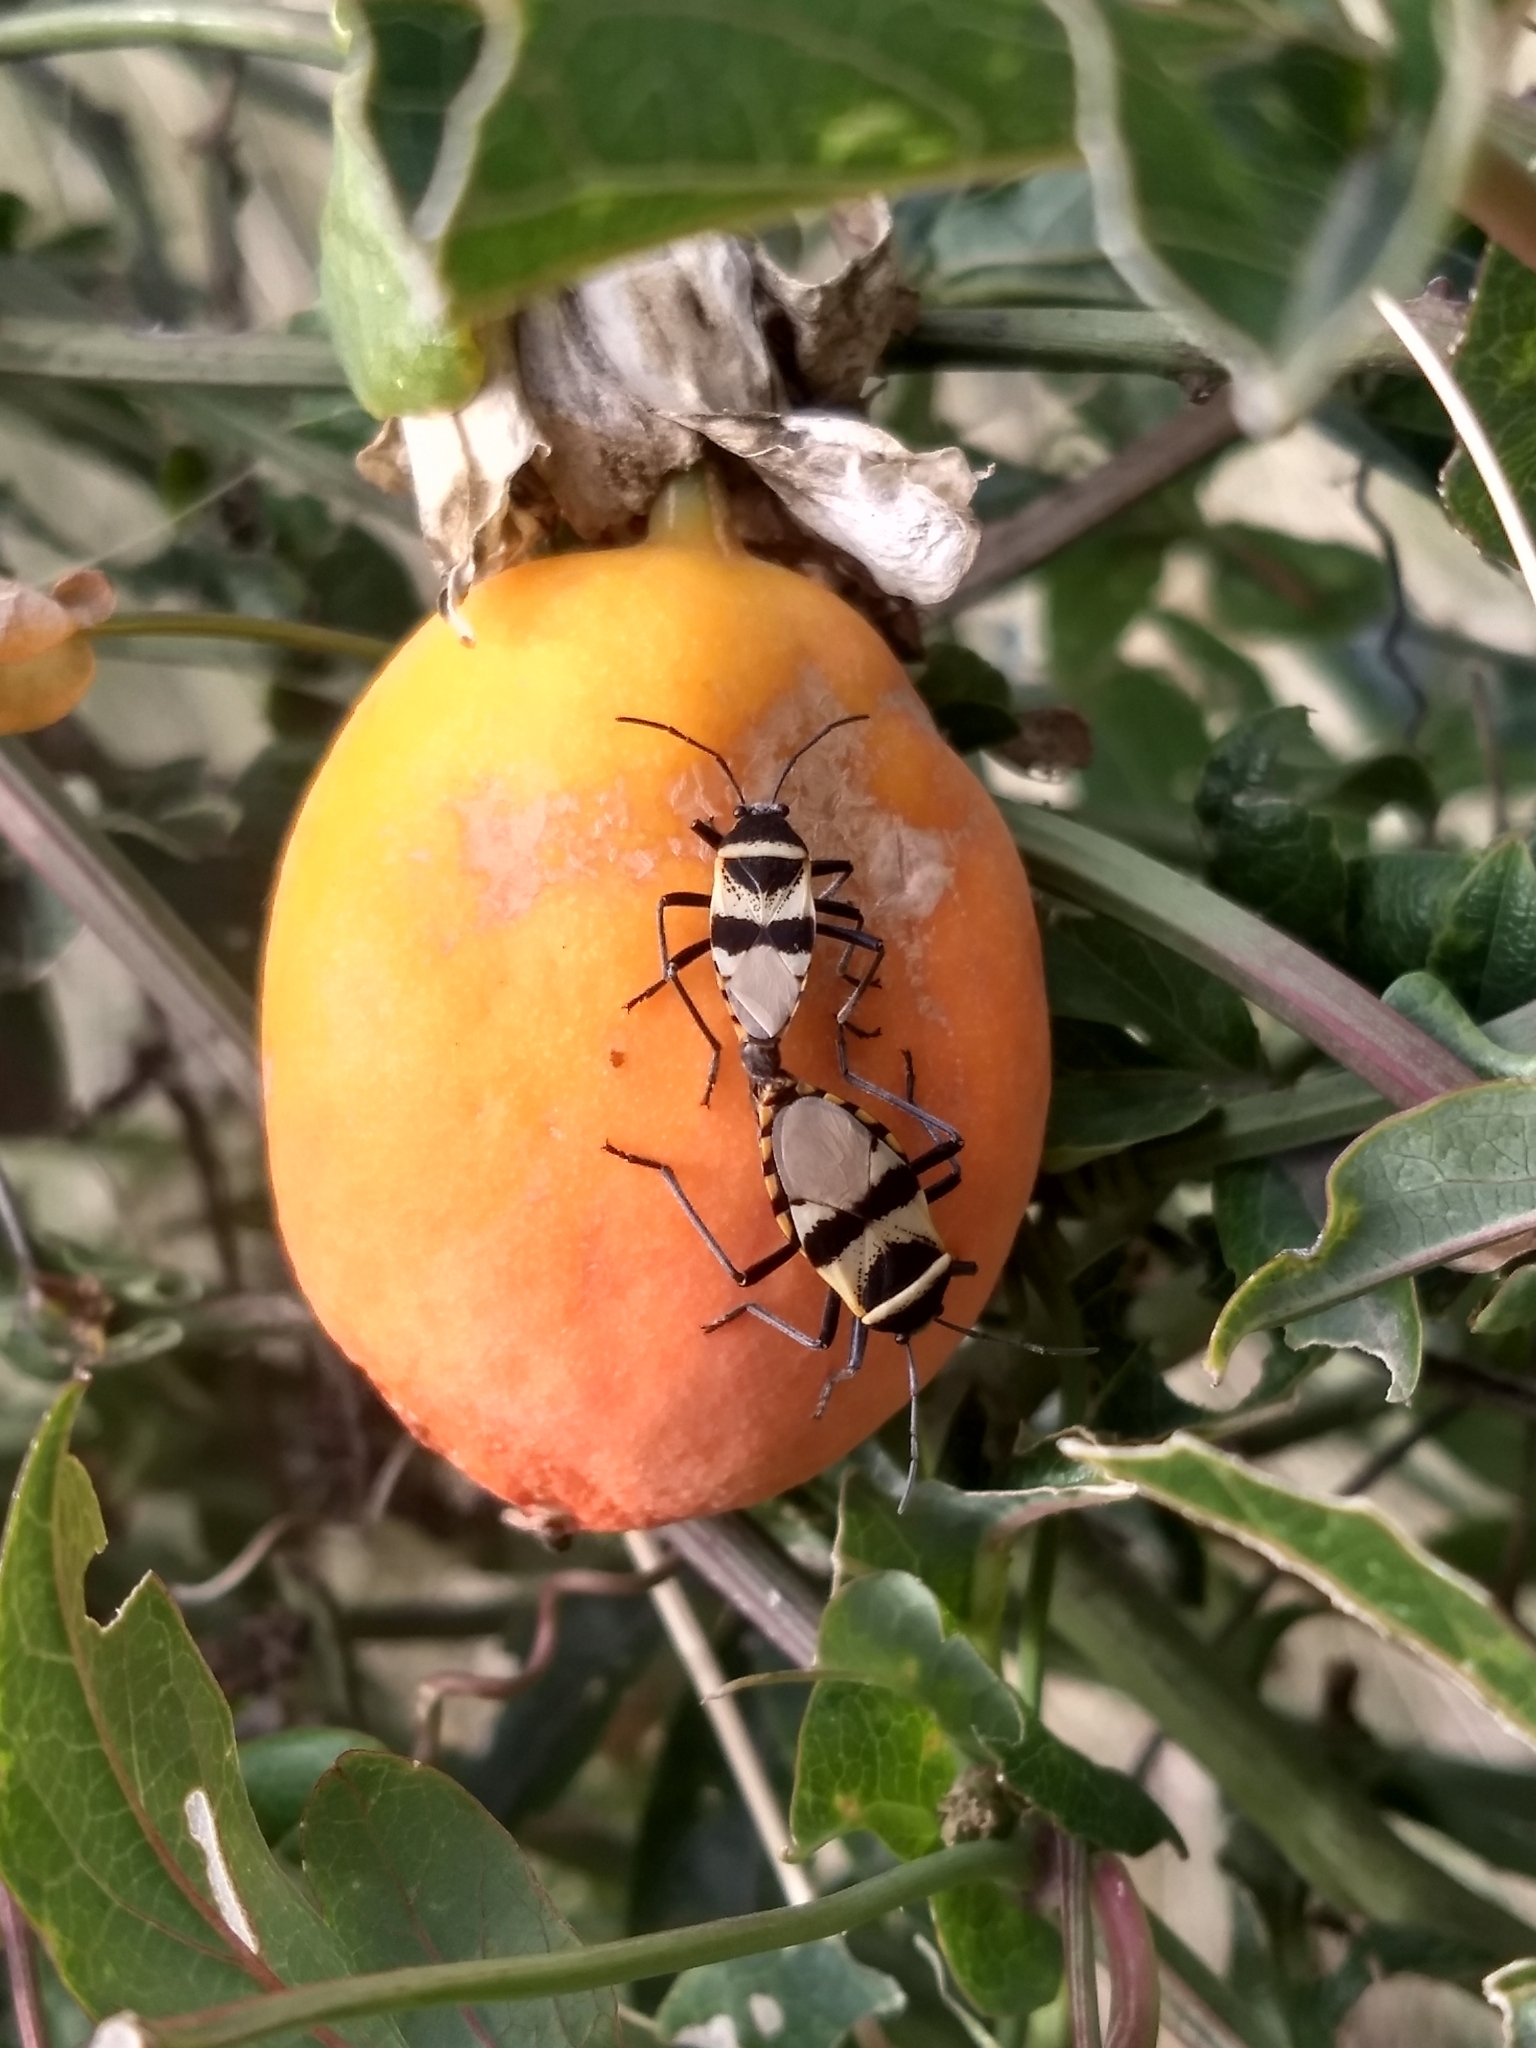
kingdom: Animalia
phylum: Arthropoda
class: Insecta
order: Hemiptera
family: Largidae
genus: Largus
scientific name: Largus fasciatus
